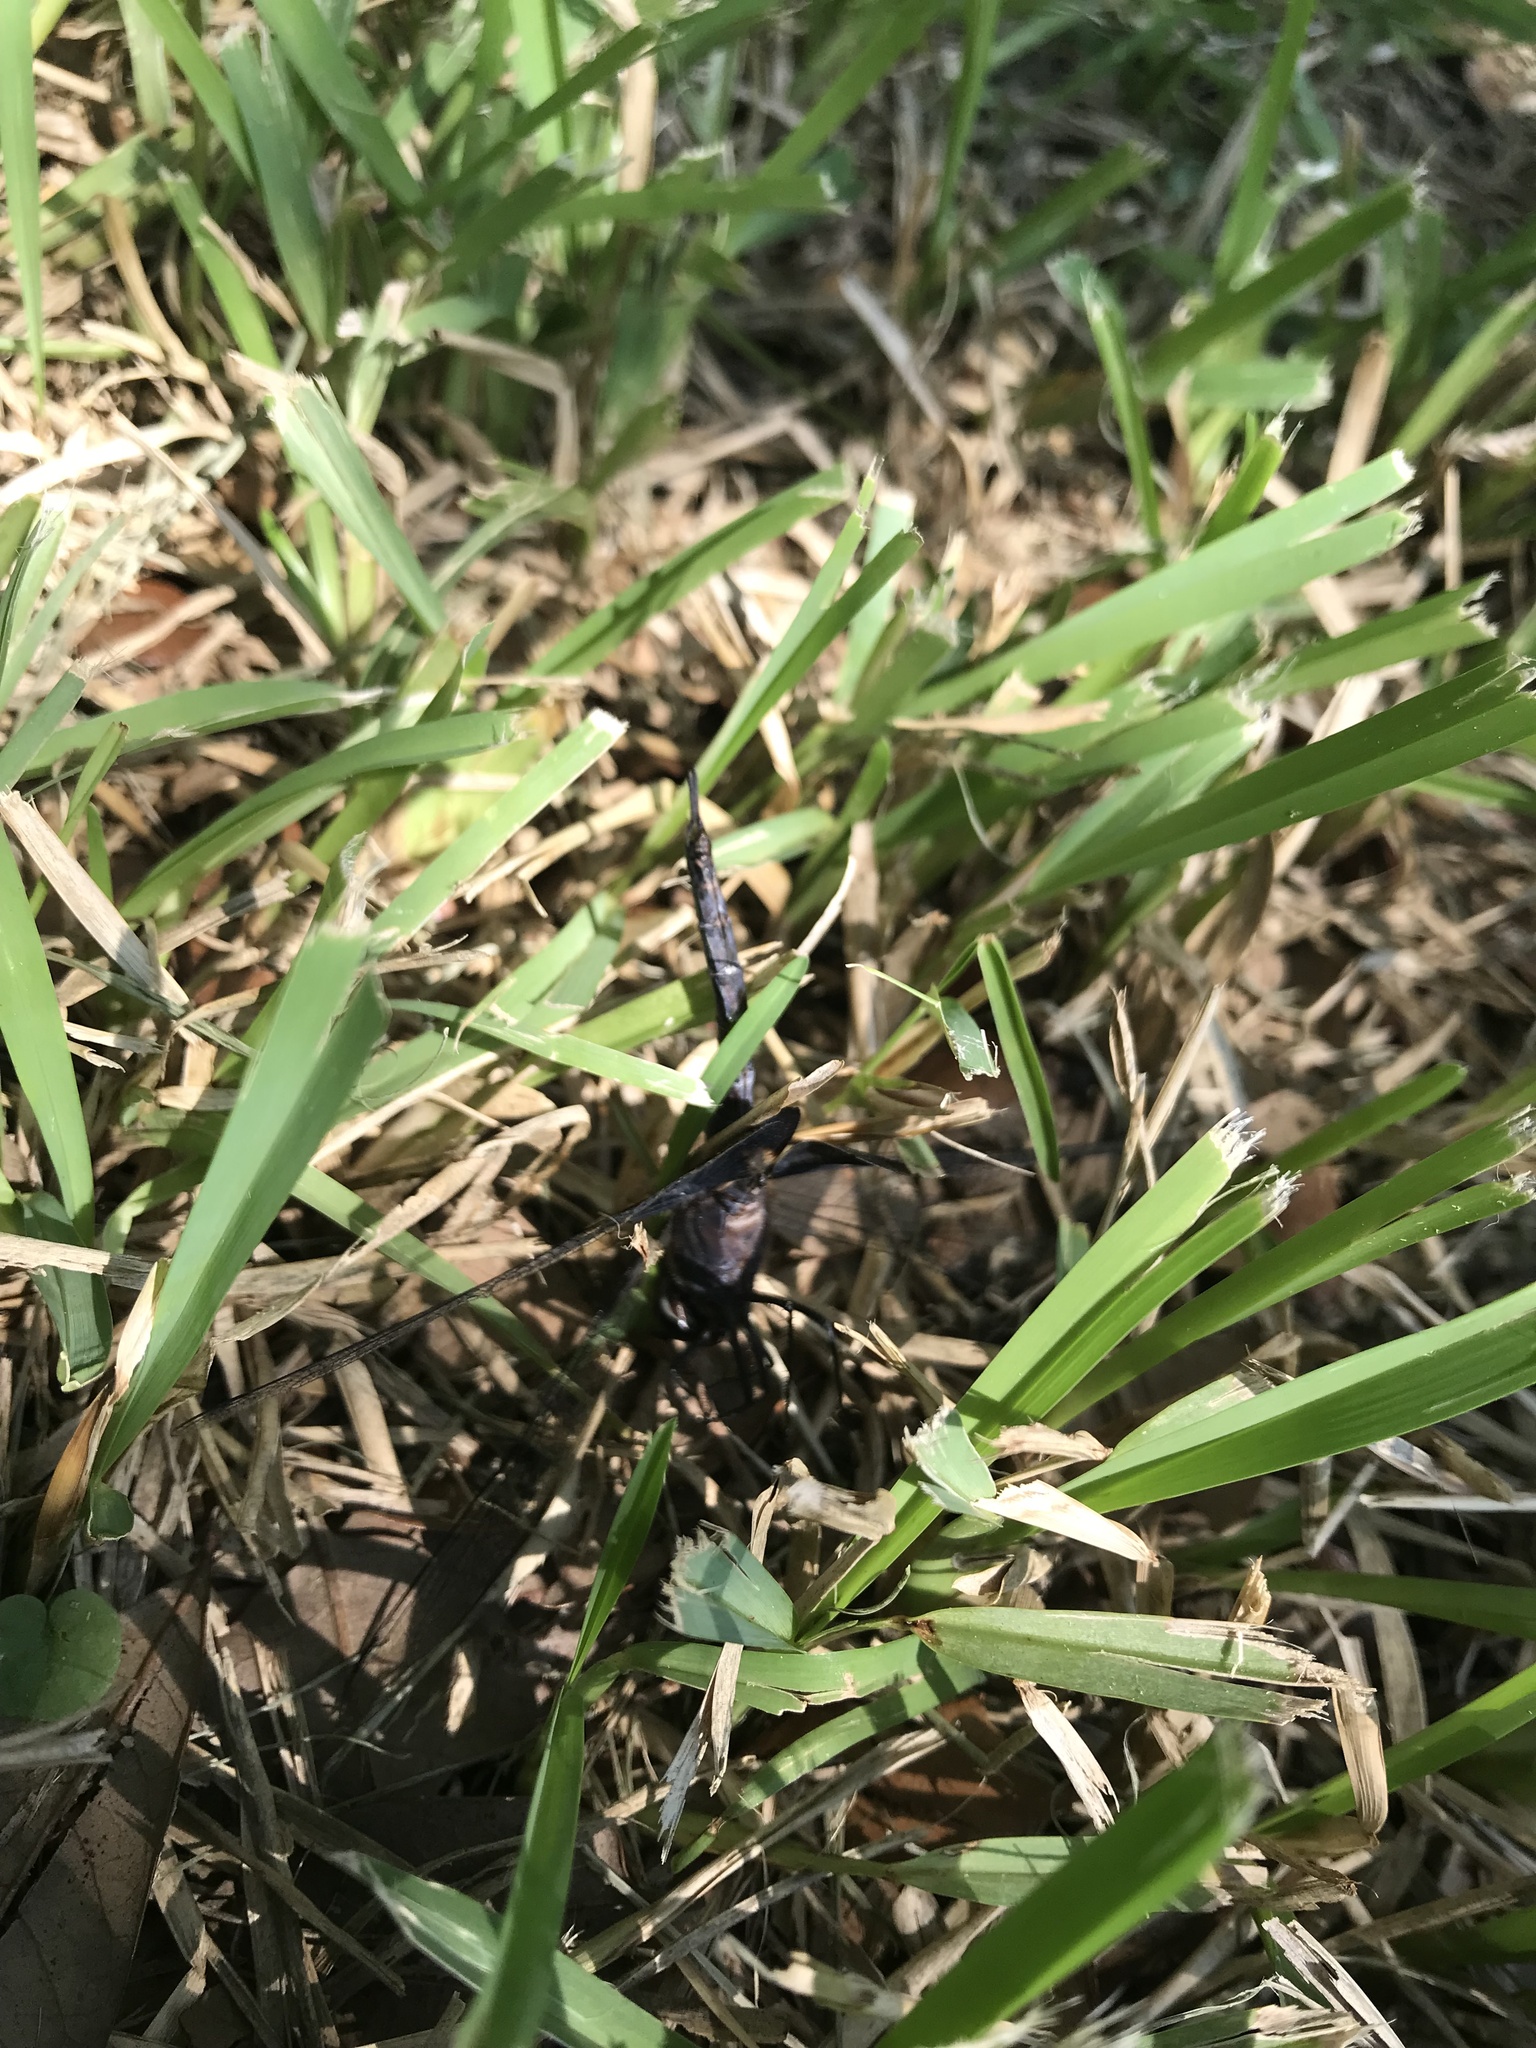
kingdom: Animalia
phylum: Arthropoda
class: Insecta
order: Odonata
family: Libellulidae
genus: Tramea
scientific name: Tramea lacerata
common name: Black saddlebags
